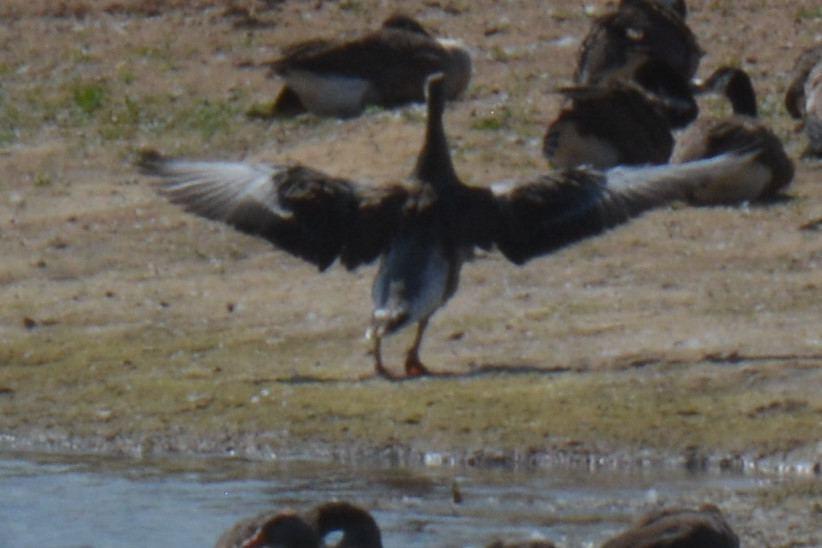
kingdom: Animalia
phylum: Chordata
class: Aves
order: Anseriformes
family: Anatidae
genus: Anser
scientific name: Anser anser
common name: Greylag goose
